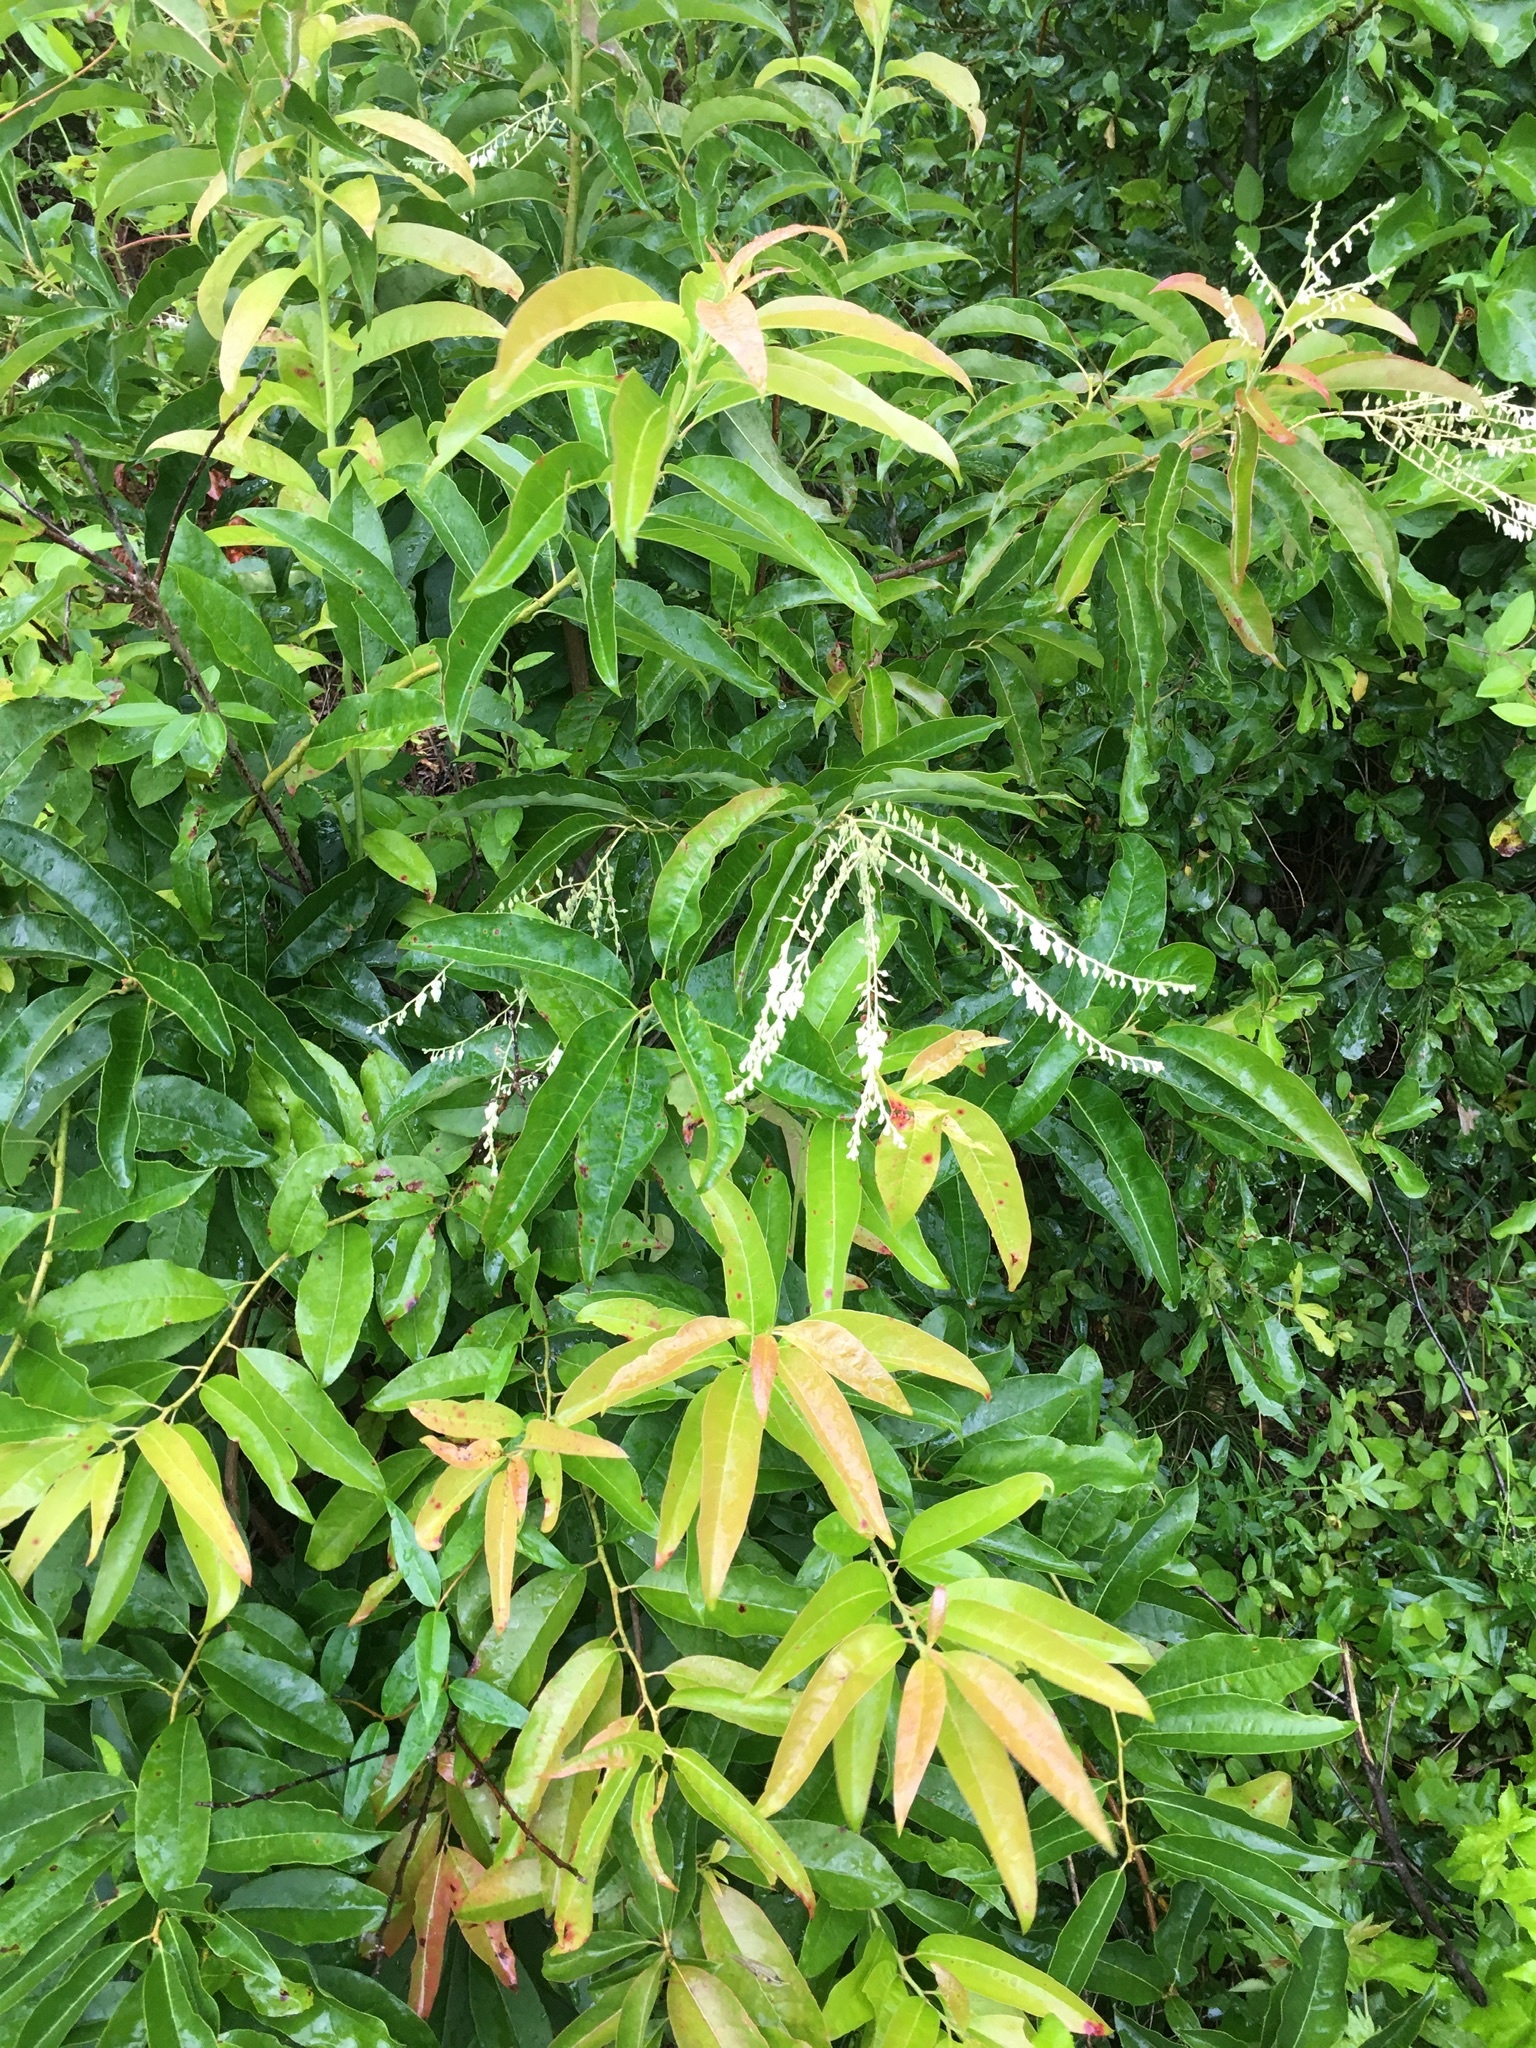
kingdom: Plantae
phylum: Tracheophyta
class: Magnoliopsida
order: Ericales
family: Ericaceae
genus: Oxydendrum
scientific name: Oxydendrum arboreum
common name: Sourwood
